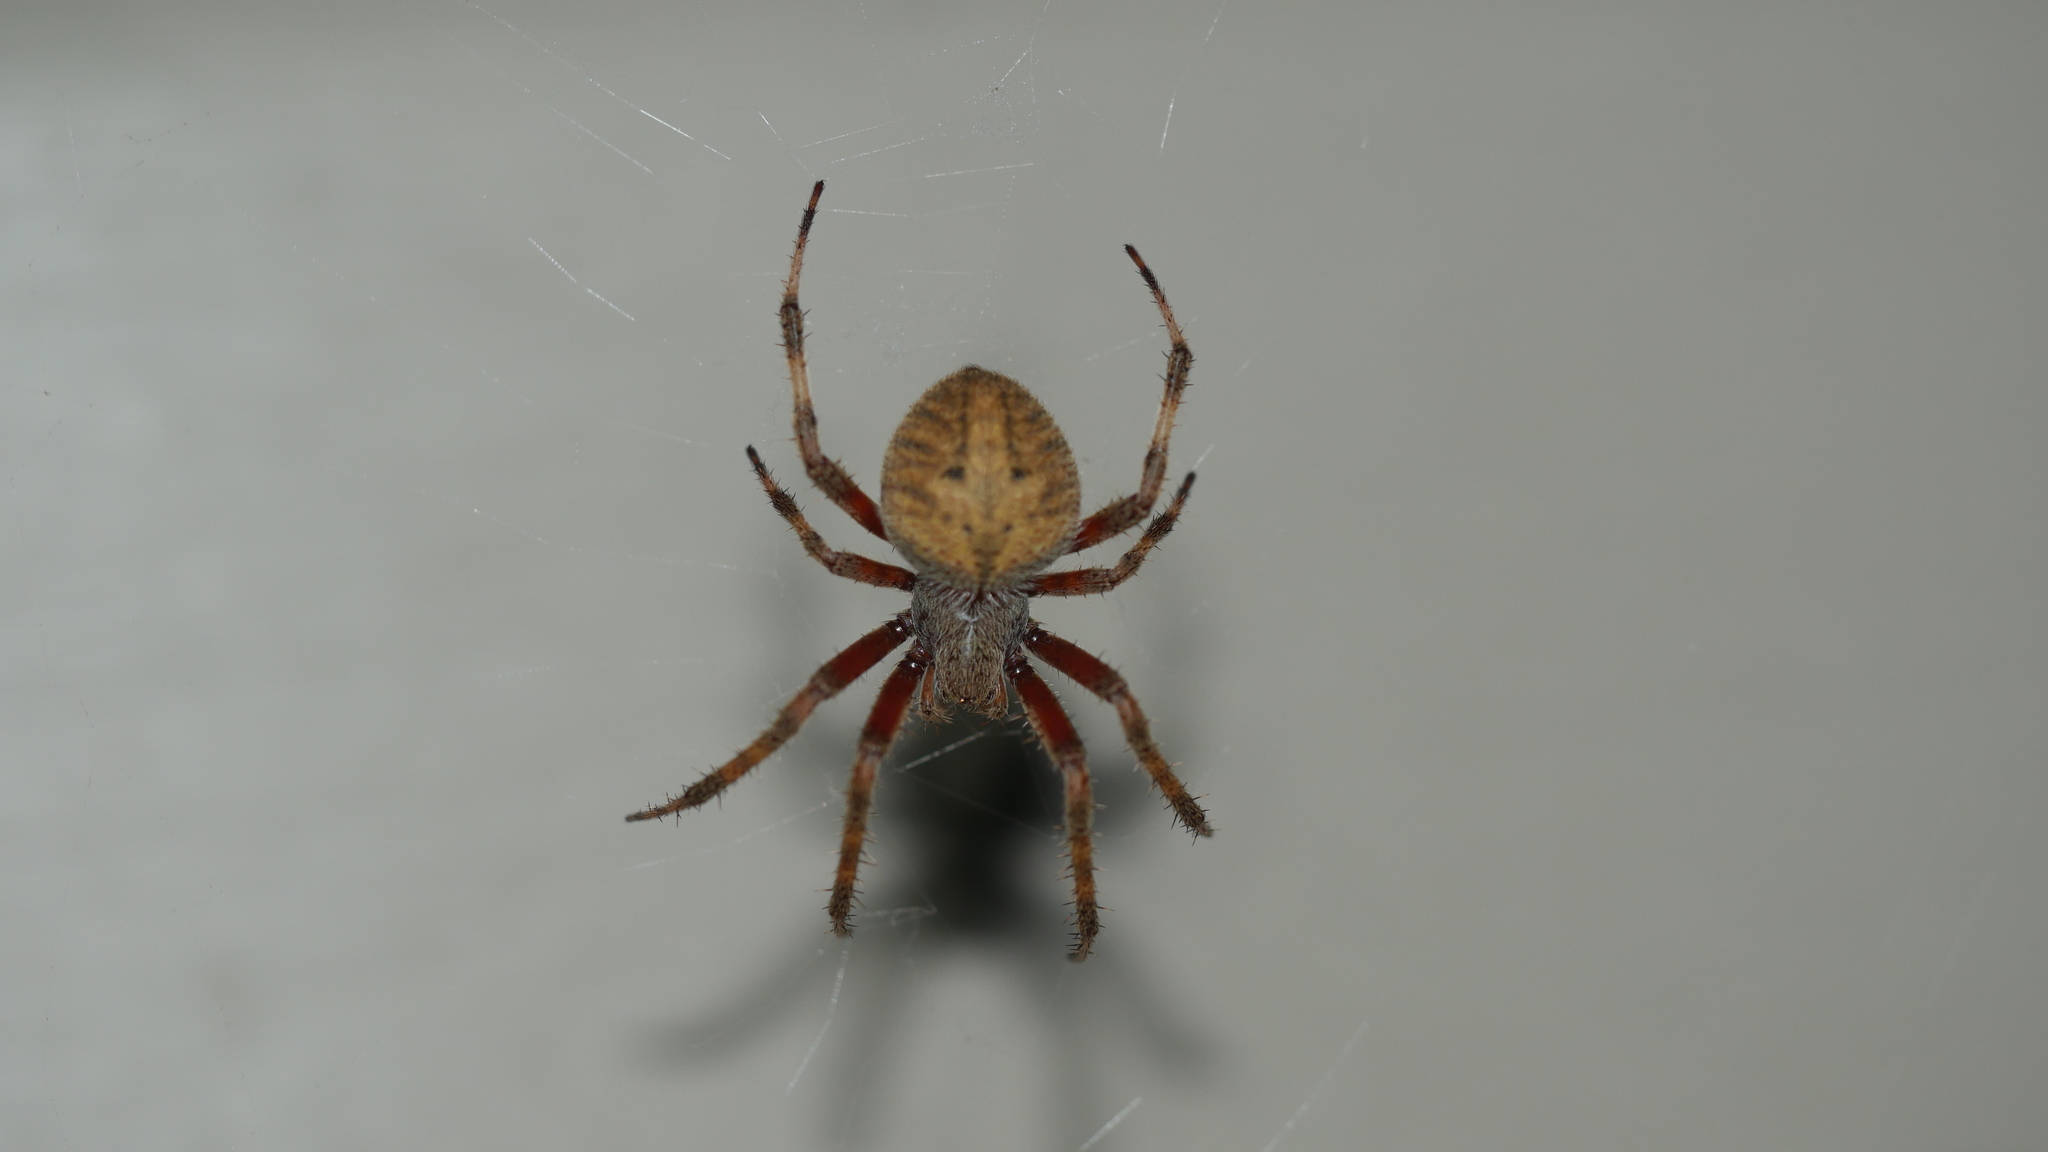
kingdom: Animalia
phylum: Arthropoda
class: Arachnida
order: Araneae
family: Araneidae
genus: Neoscona
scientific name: Neoscona crucifera
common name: Spotted orbweaver
